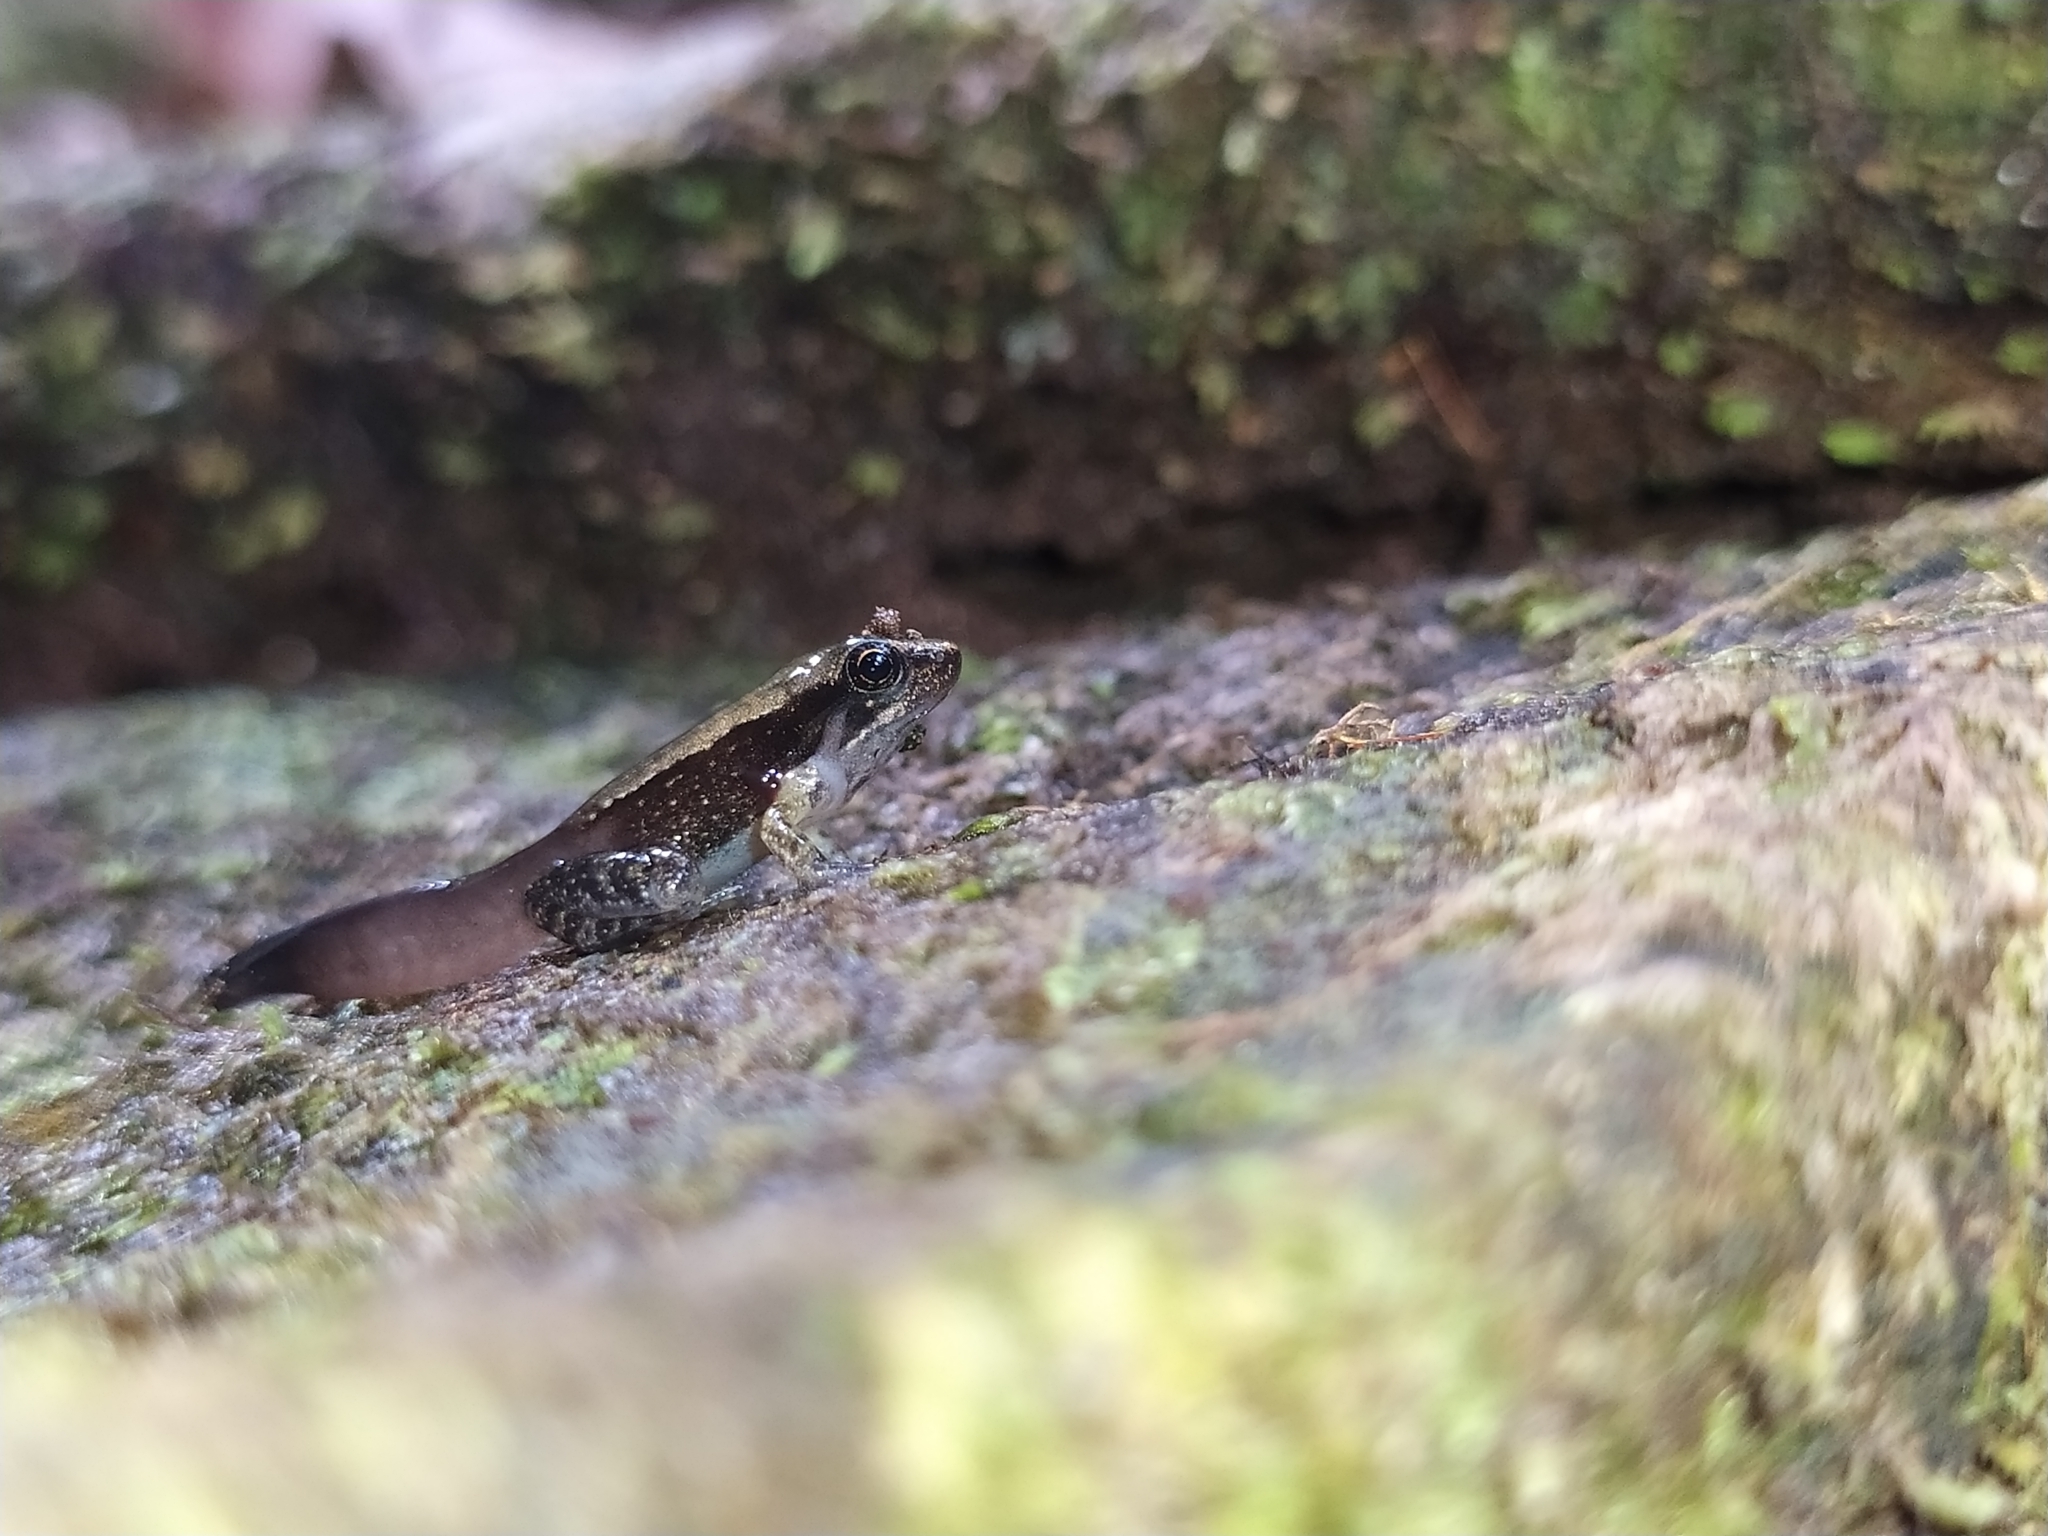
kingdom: Animalia
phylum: Chordata
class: Amphibia
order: Anura
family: Micrixalidae
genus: Micrixalus
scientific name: Micrixalus elegans
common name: Elegant dancing frog
